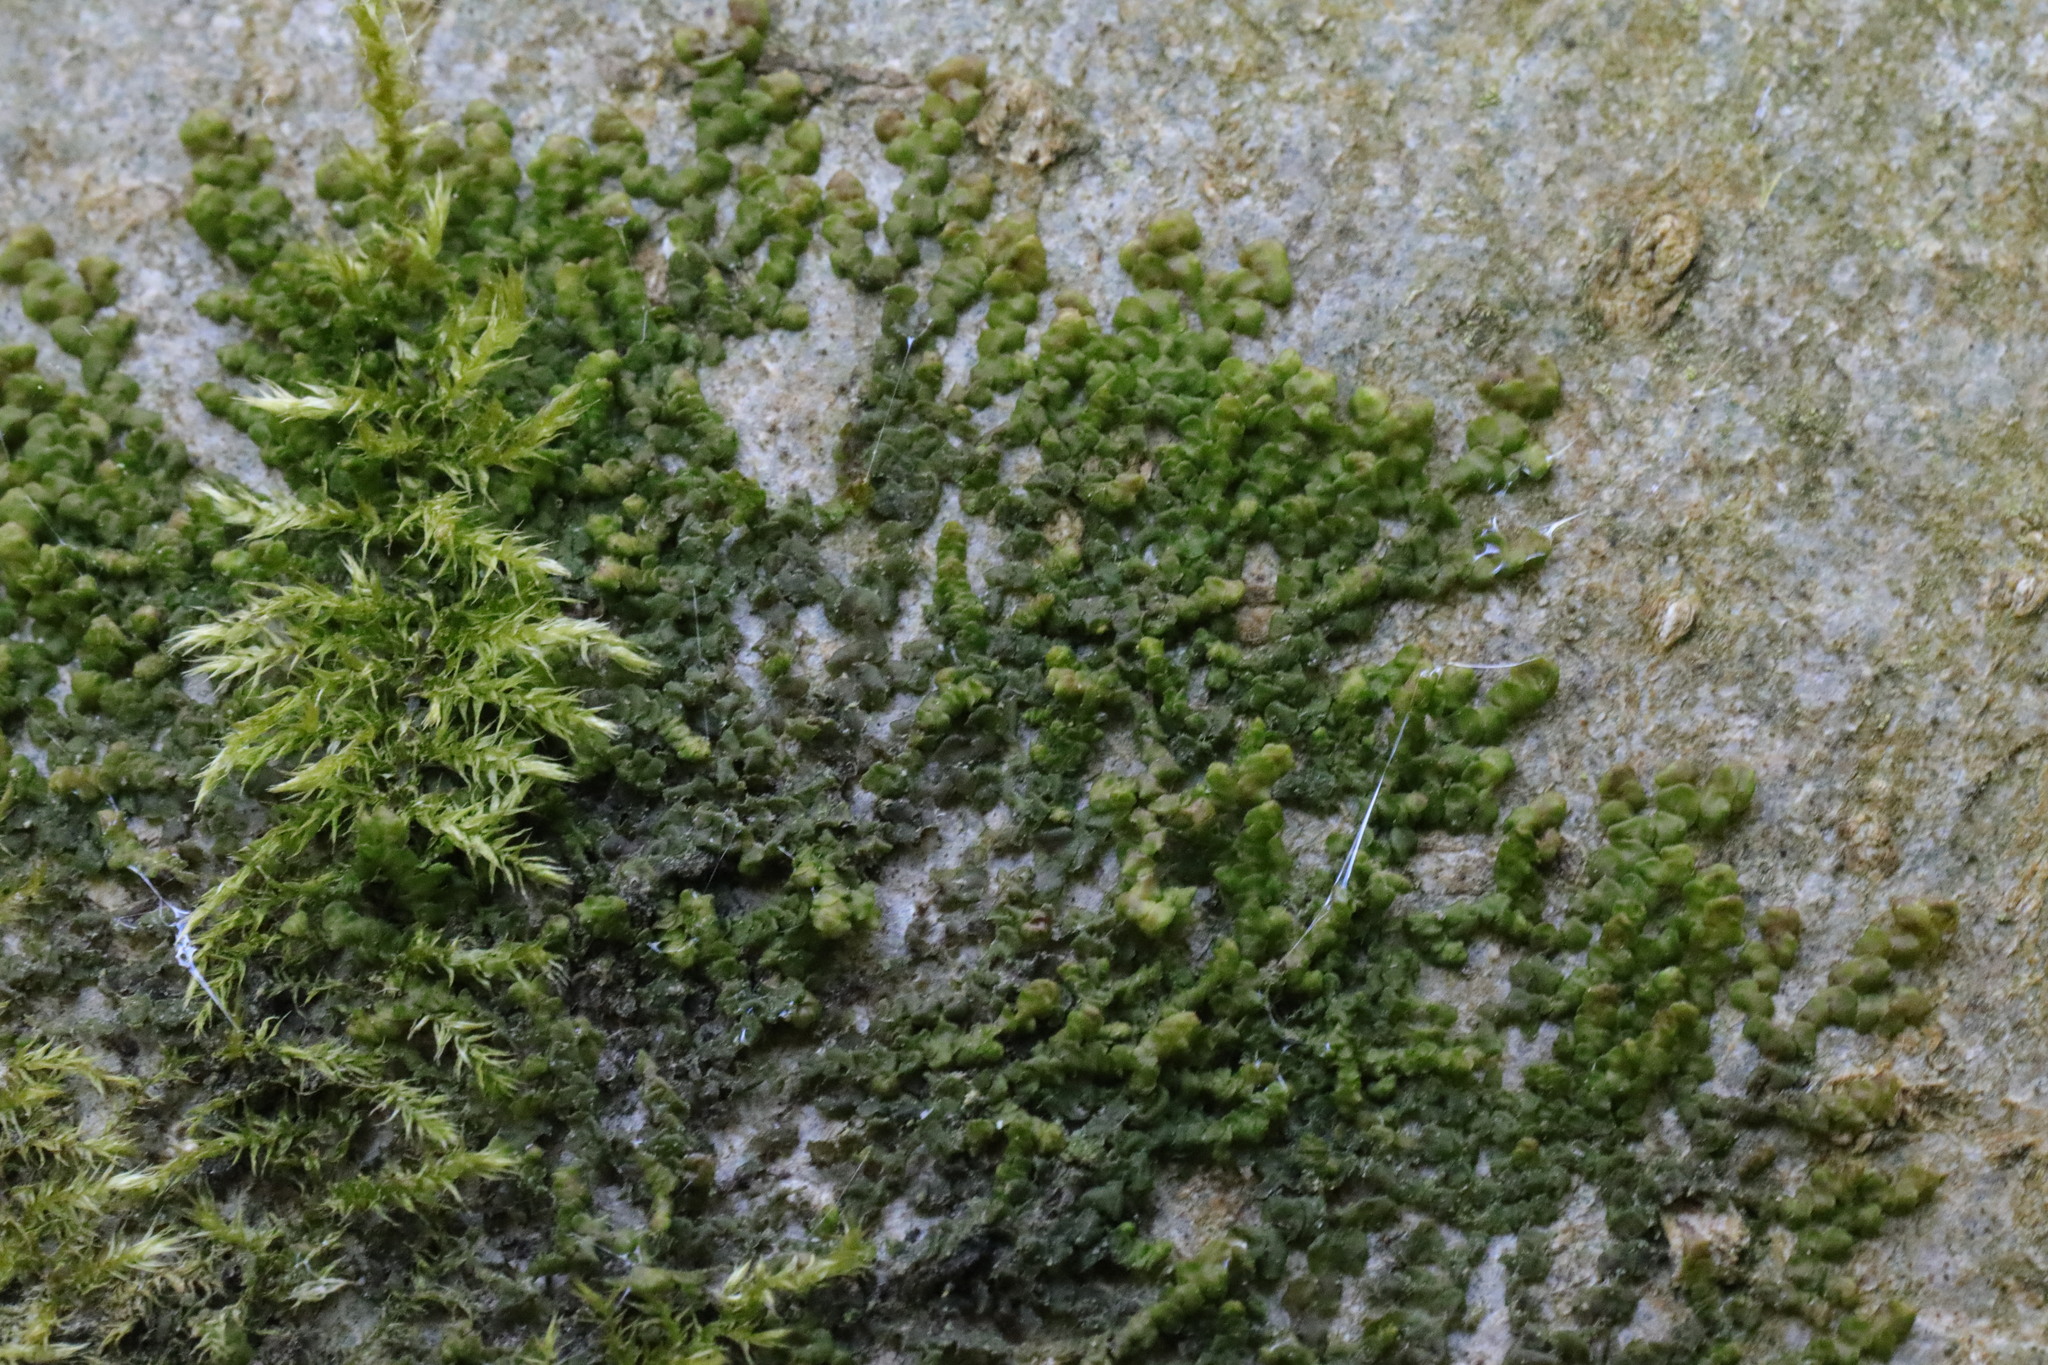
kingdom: Plantae
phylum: Marchantiophyta
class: Jungermanniopsida
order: Porellales
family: Frullaniaceae
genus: Frullania
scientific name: Frullania dilatata
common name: Dilated scalewort
